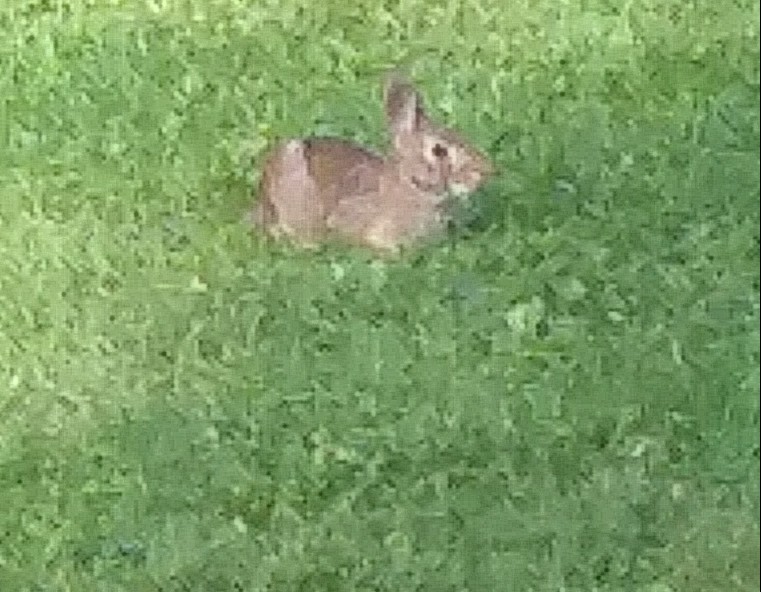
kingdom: Animalia
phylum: Chordata
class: Mammalia
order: Lagomorpha
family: Leporidae
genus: Sylvilagus
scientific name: Sylvilagus floridanus
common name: Eastern cottontail
